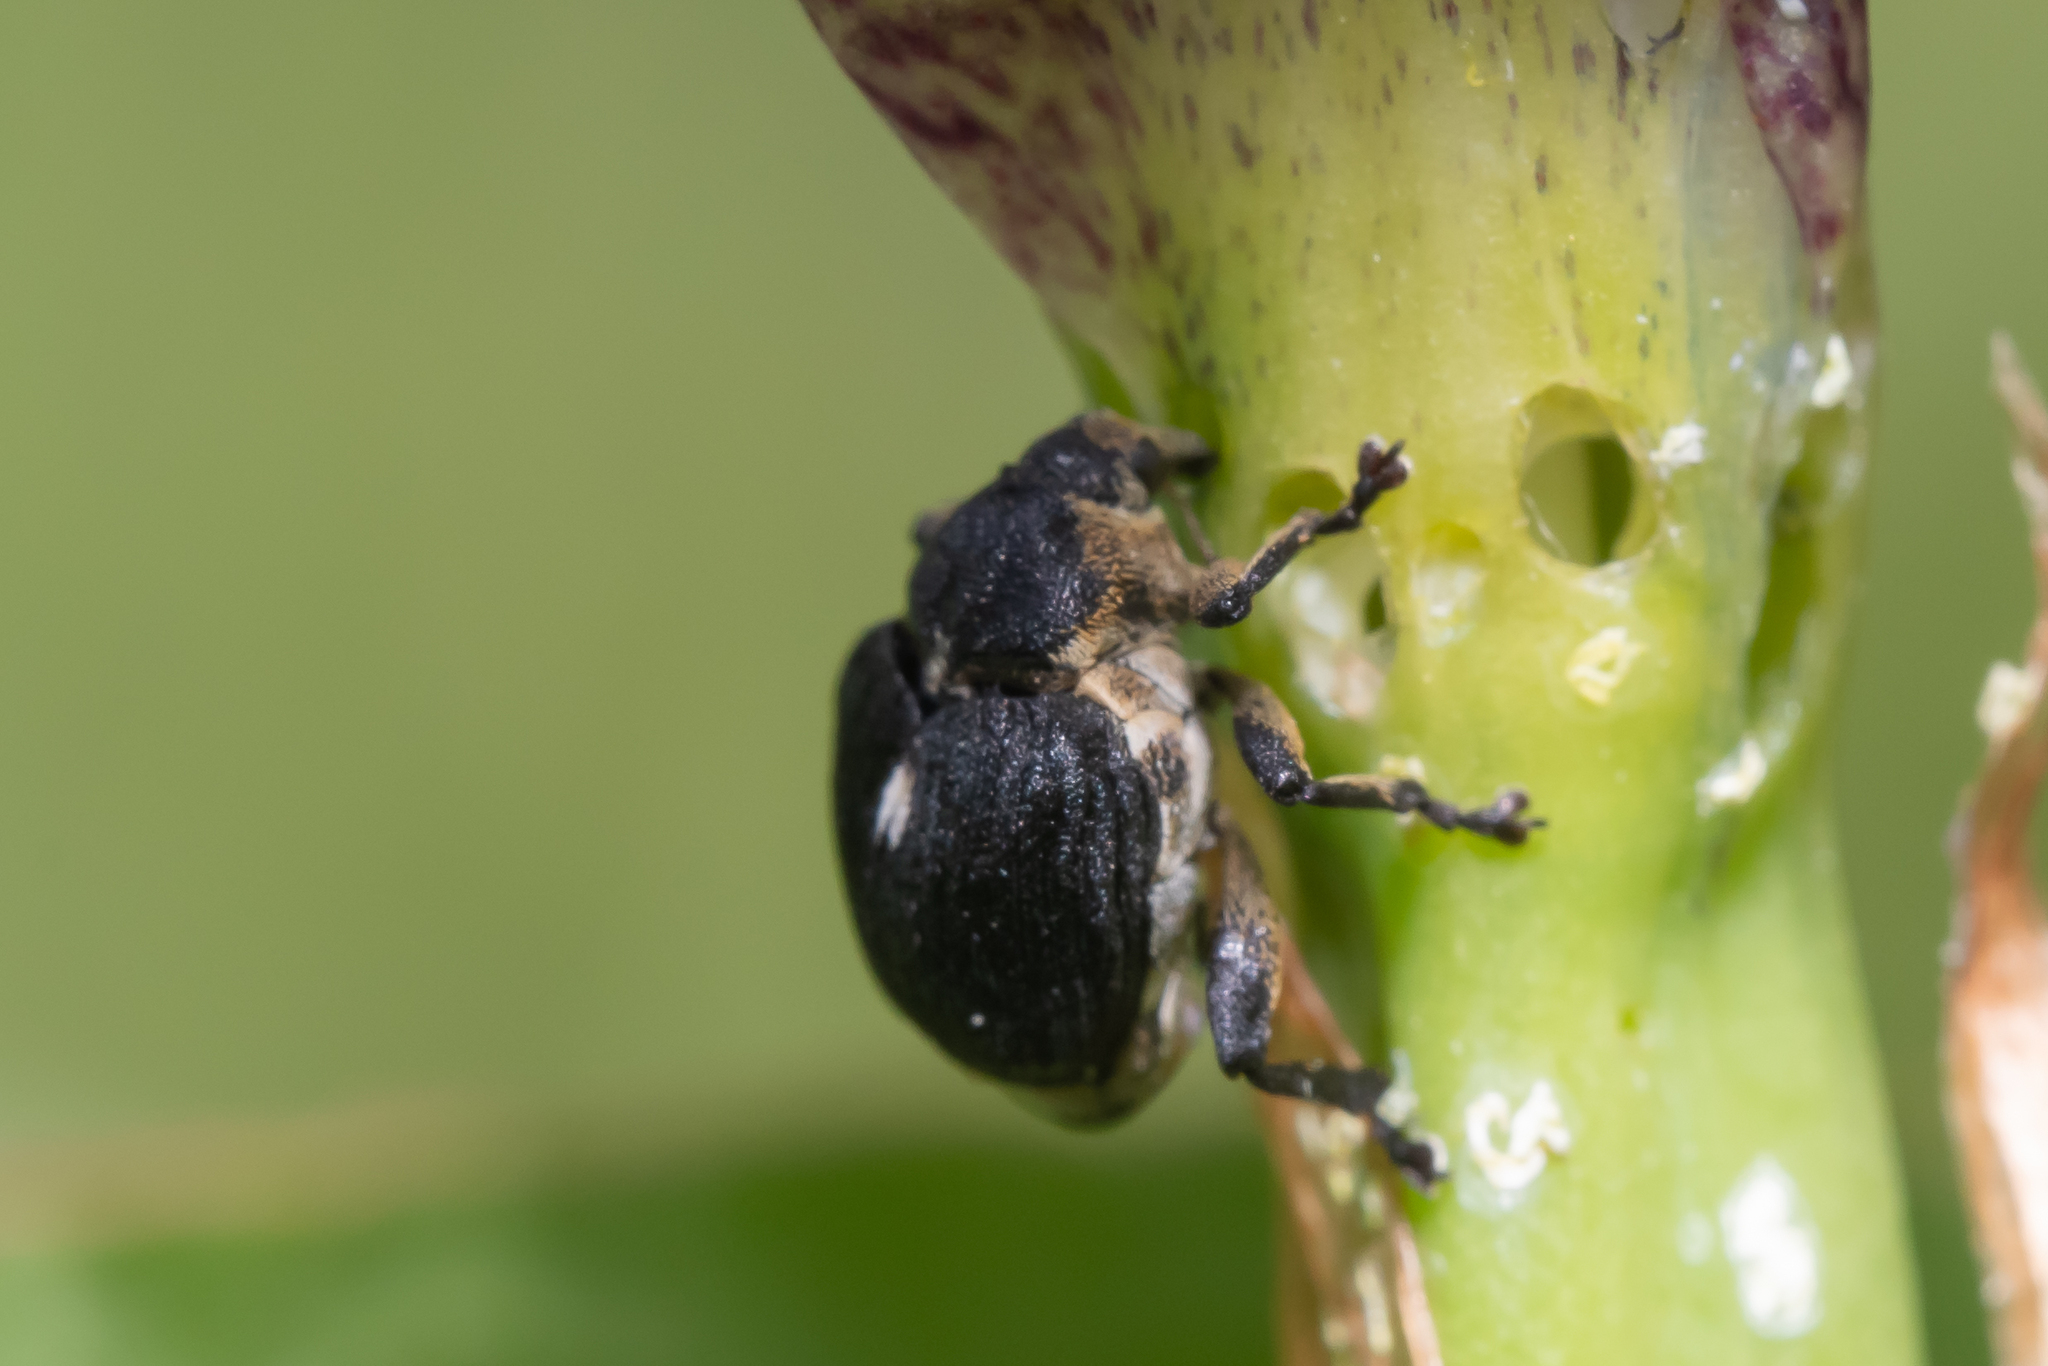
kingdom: Animalia
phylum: Arthropoda
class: Insecta
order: Coleoptera
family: Curculionidae
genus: Mononychus
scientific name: Mononychus punctumalbum
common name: Iris weevil
